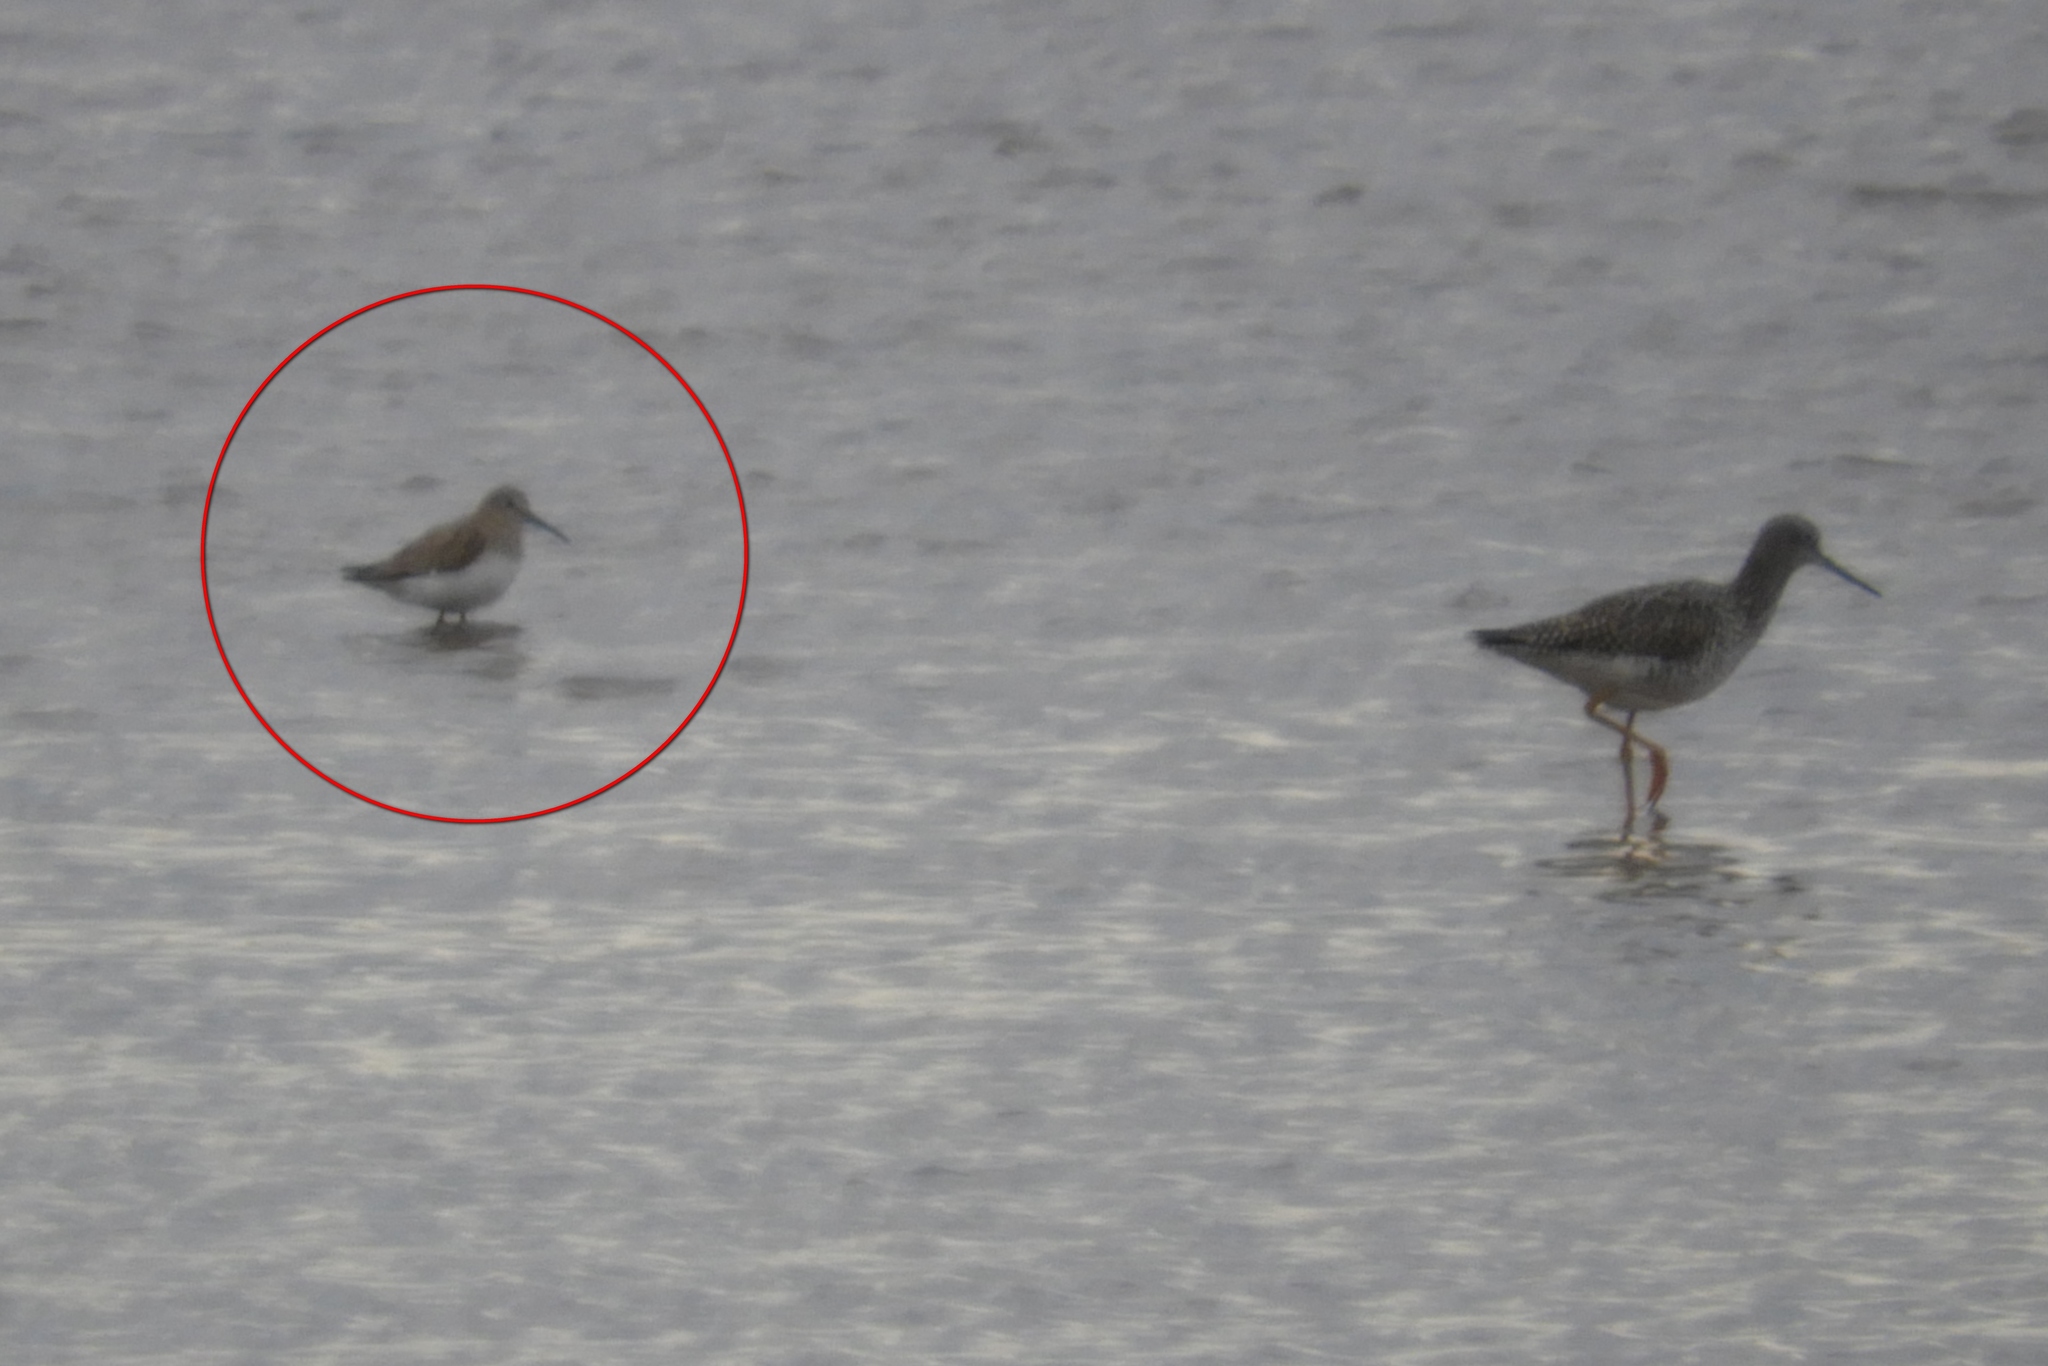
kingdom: Animalia
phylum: Chordata
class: Aves
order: Charadriiformes
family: Scolopacidae
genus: Calidris
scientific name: Calidris alpina
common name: Dunlin
